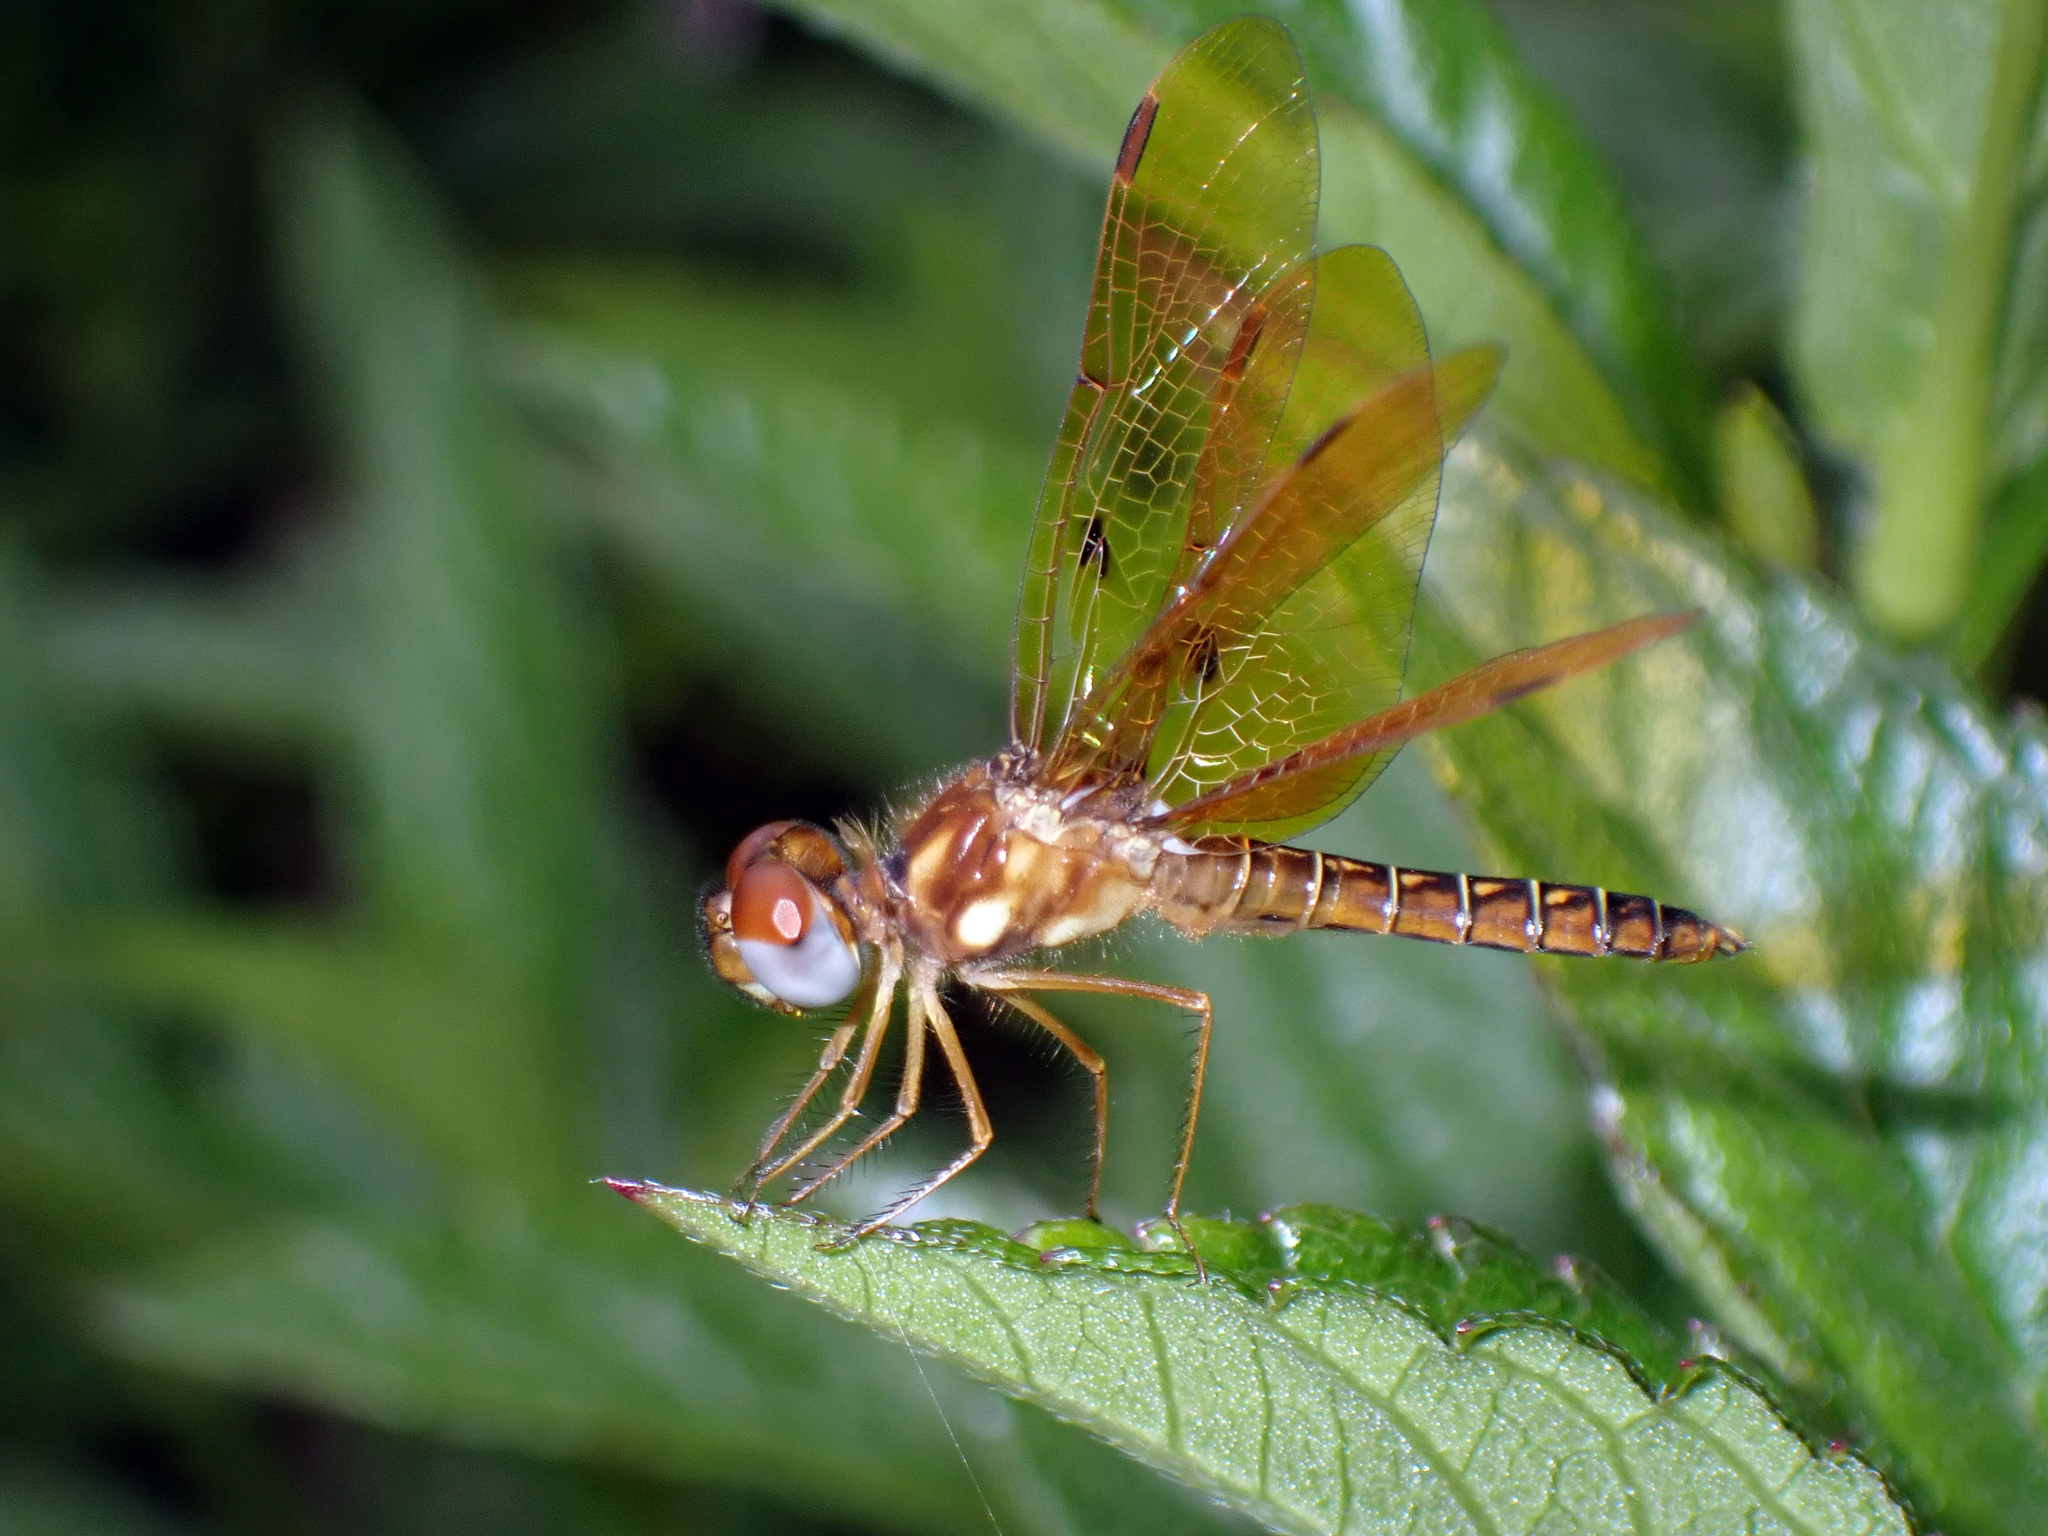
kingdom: Animalia
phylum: Arthropoda
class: Insecta
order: Odonata
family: Libellulidae
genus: Perithemis
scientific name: Perithemis tenera
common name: Eastern amberwing
